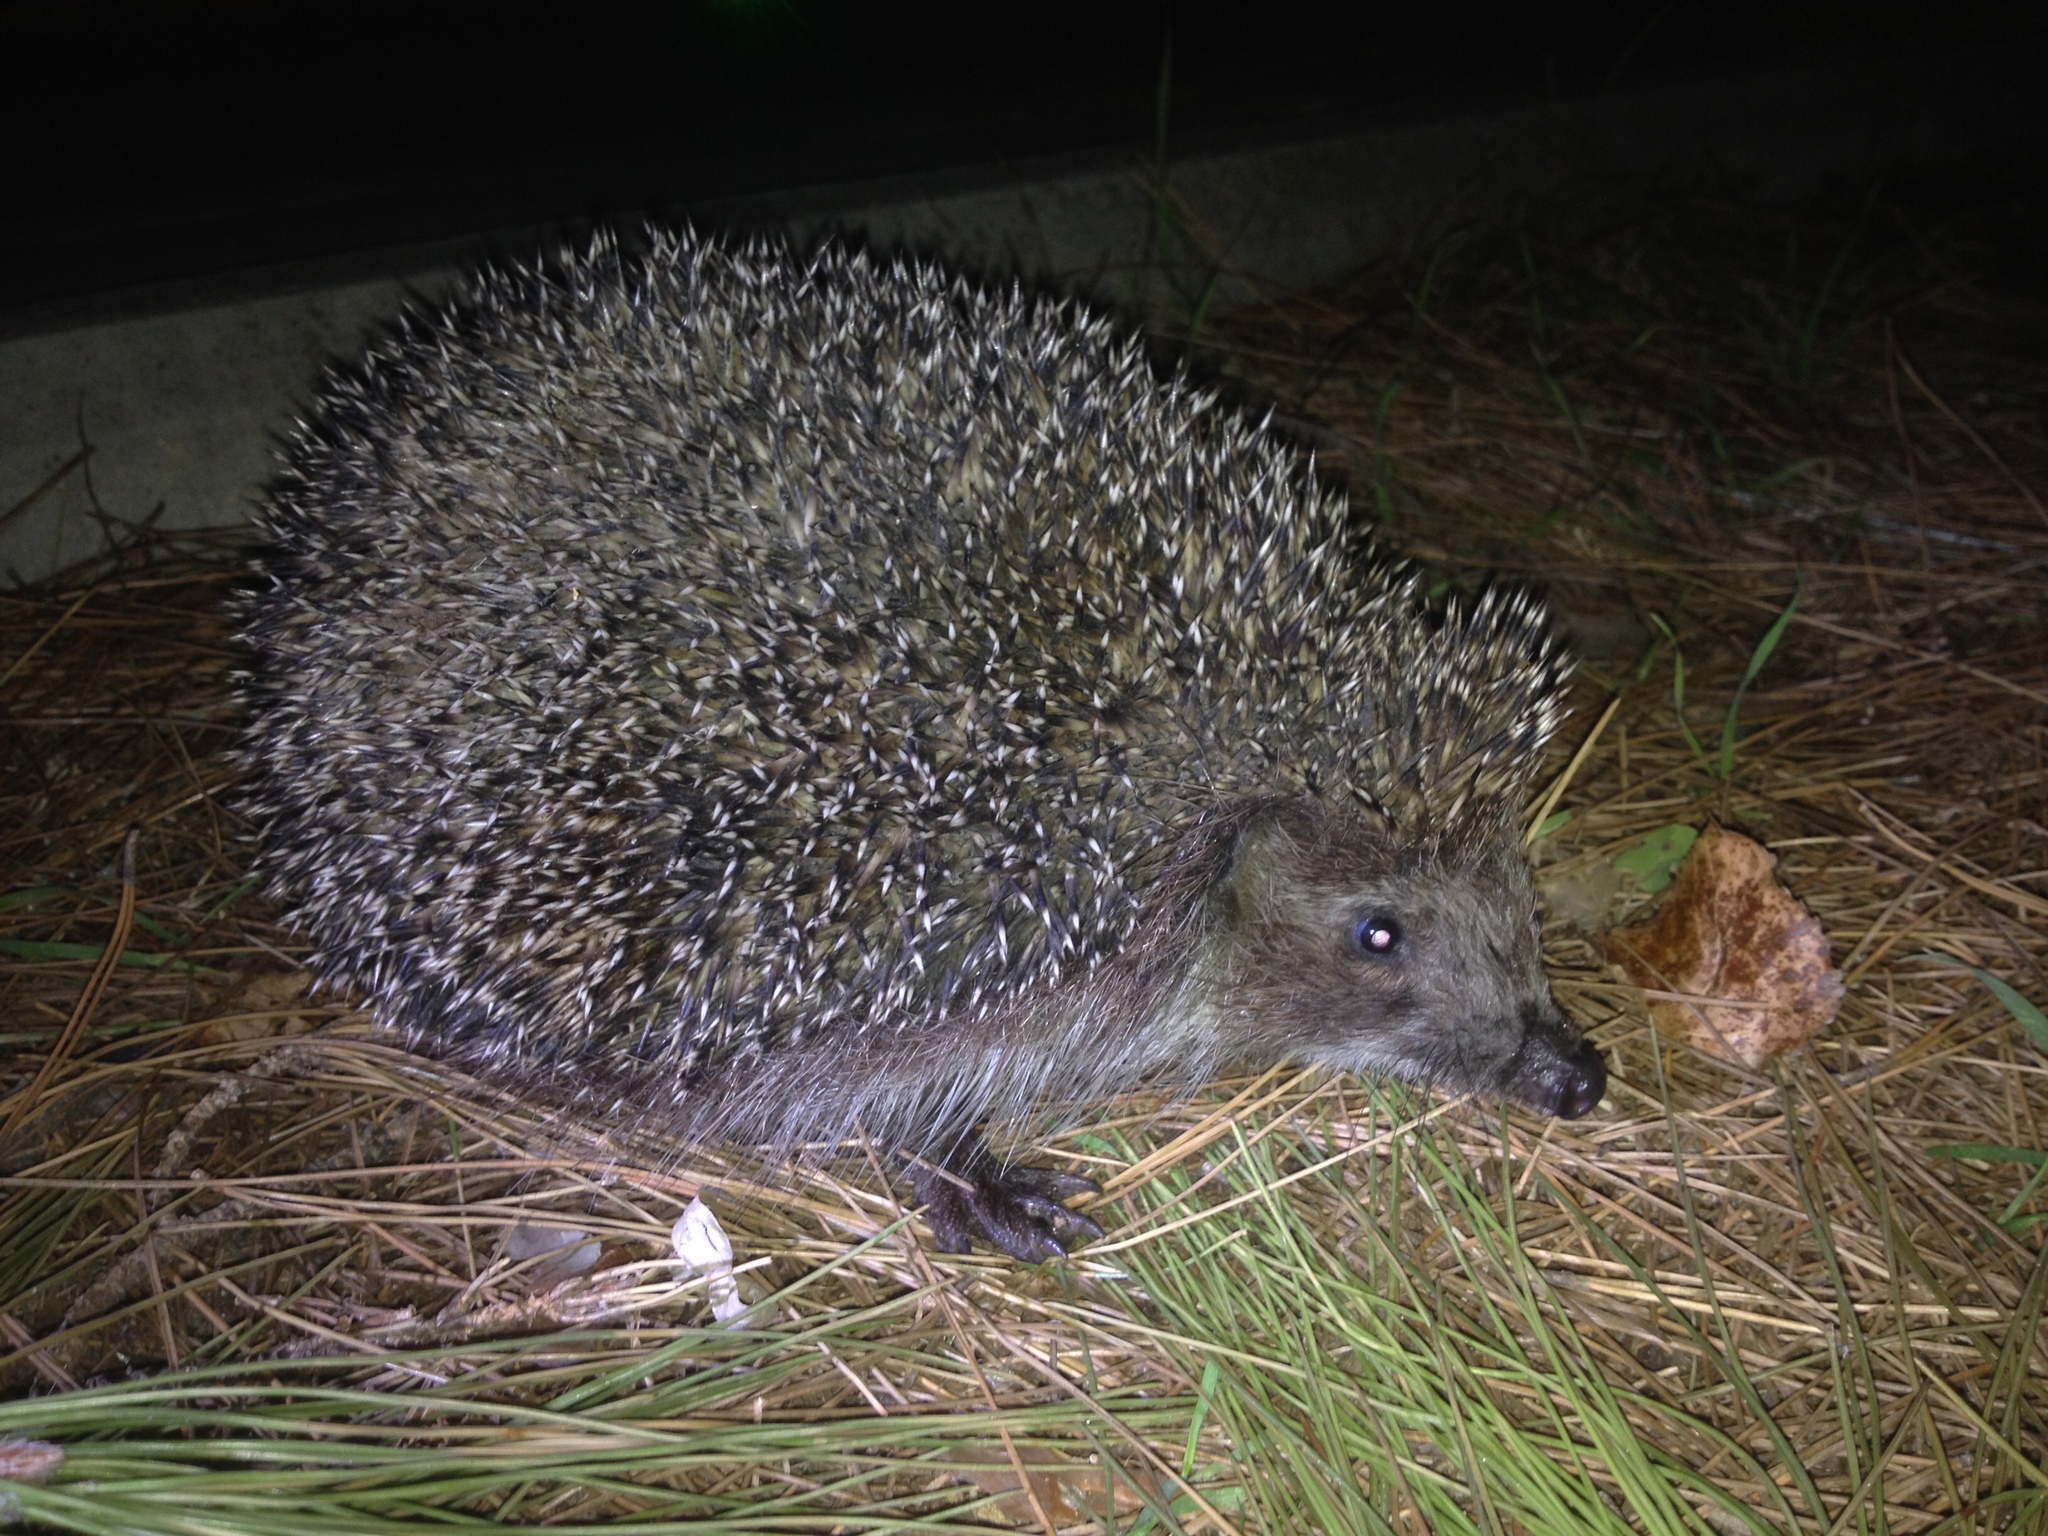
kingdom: Animalia
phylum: Chordata
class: Mammalia
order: Erinaceomorpha
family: Erinaceidae
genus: Erinaceus
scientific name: Erinaceus roumanicus
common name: Northern white-breasted hedgehog
